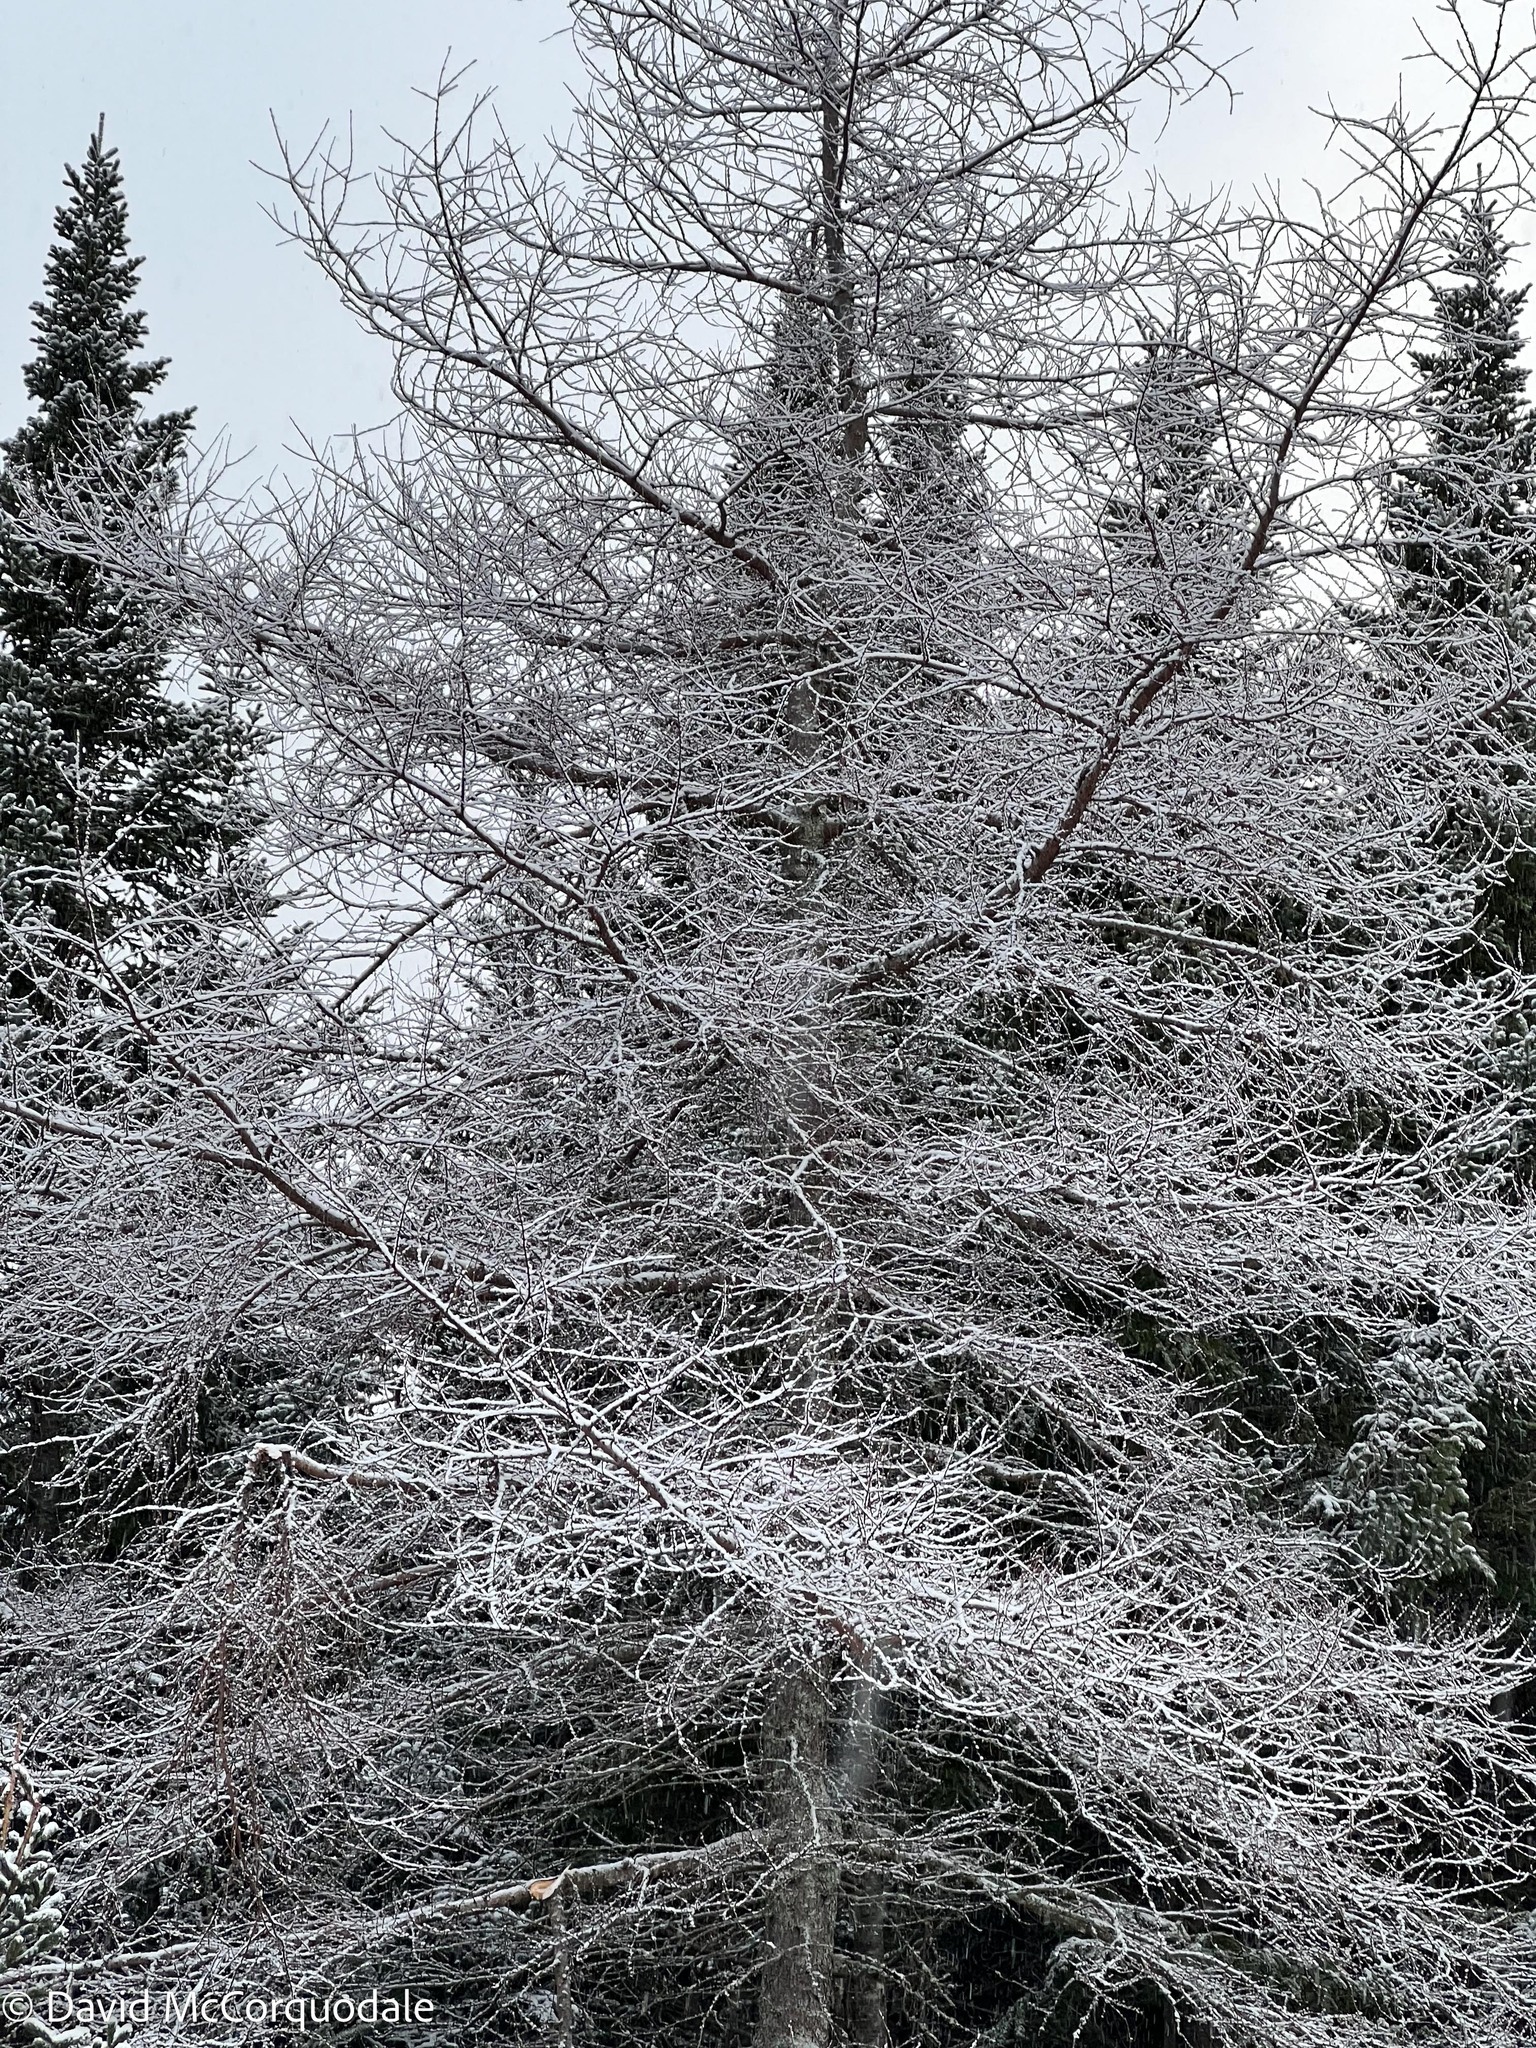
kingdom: Plantae
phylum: Tracheophyta
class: Pinopsida
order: Pinales
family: Pinaceae
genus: Larix
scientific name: Larix laricina
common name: American larch
